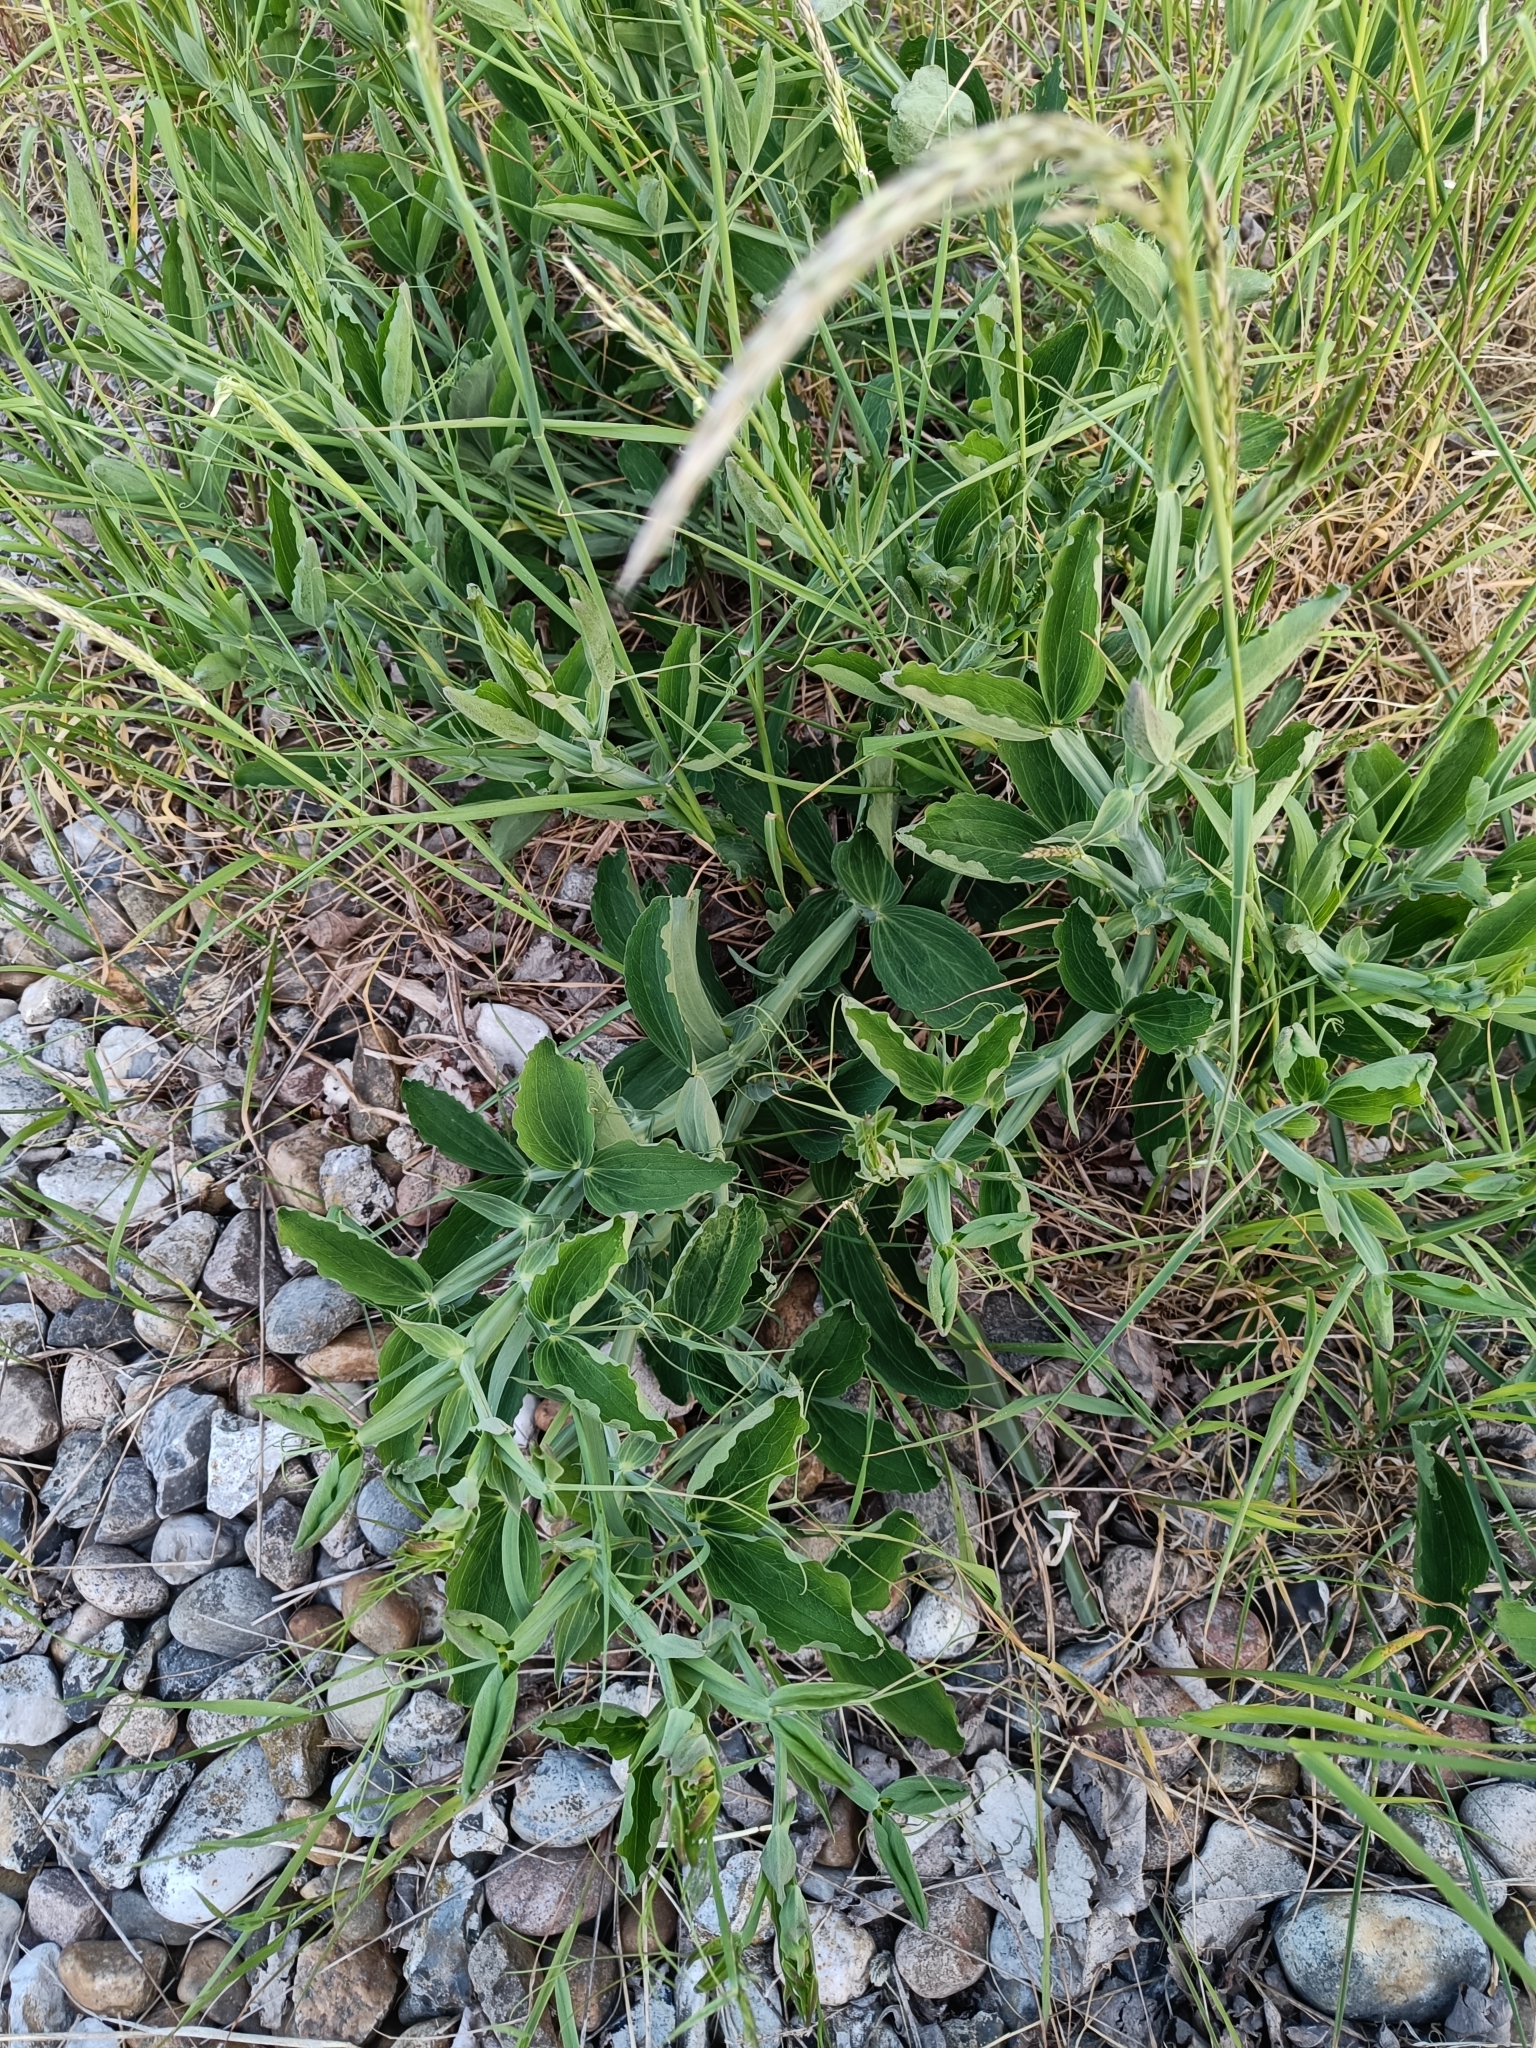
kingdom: Plantae
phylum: Tracheophyta
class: Magnoliopsida
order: Fabales
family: Fabaceae
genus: Lathyrus
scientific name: Lathyrus latifolius
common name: Perennial pea
